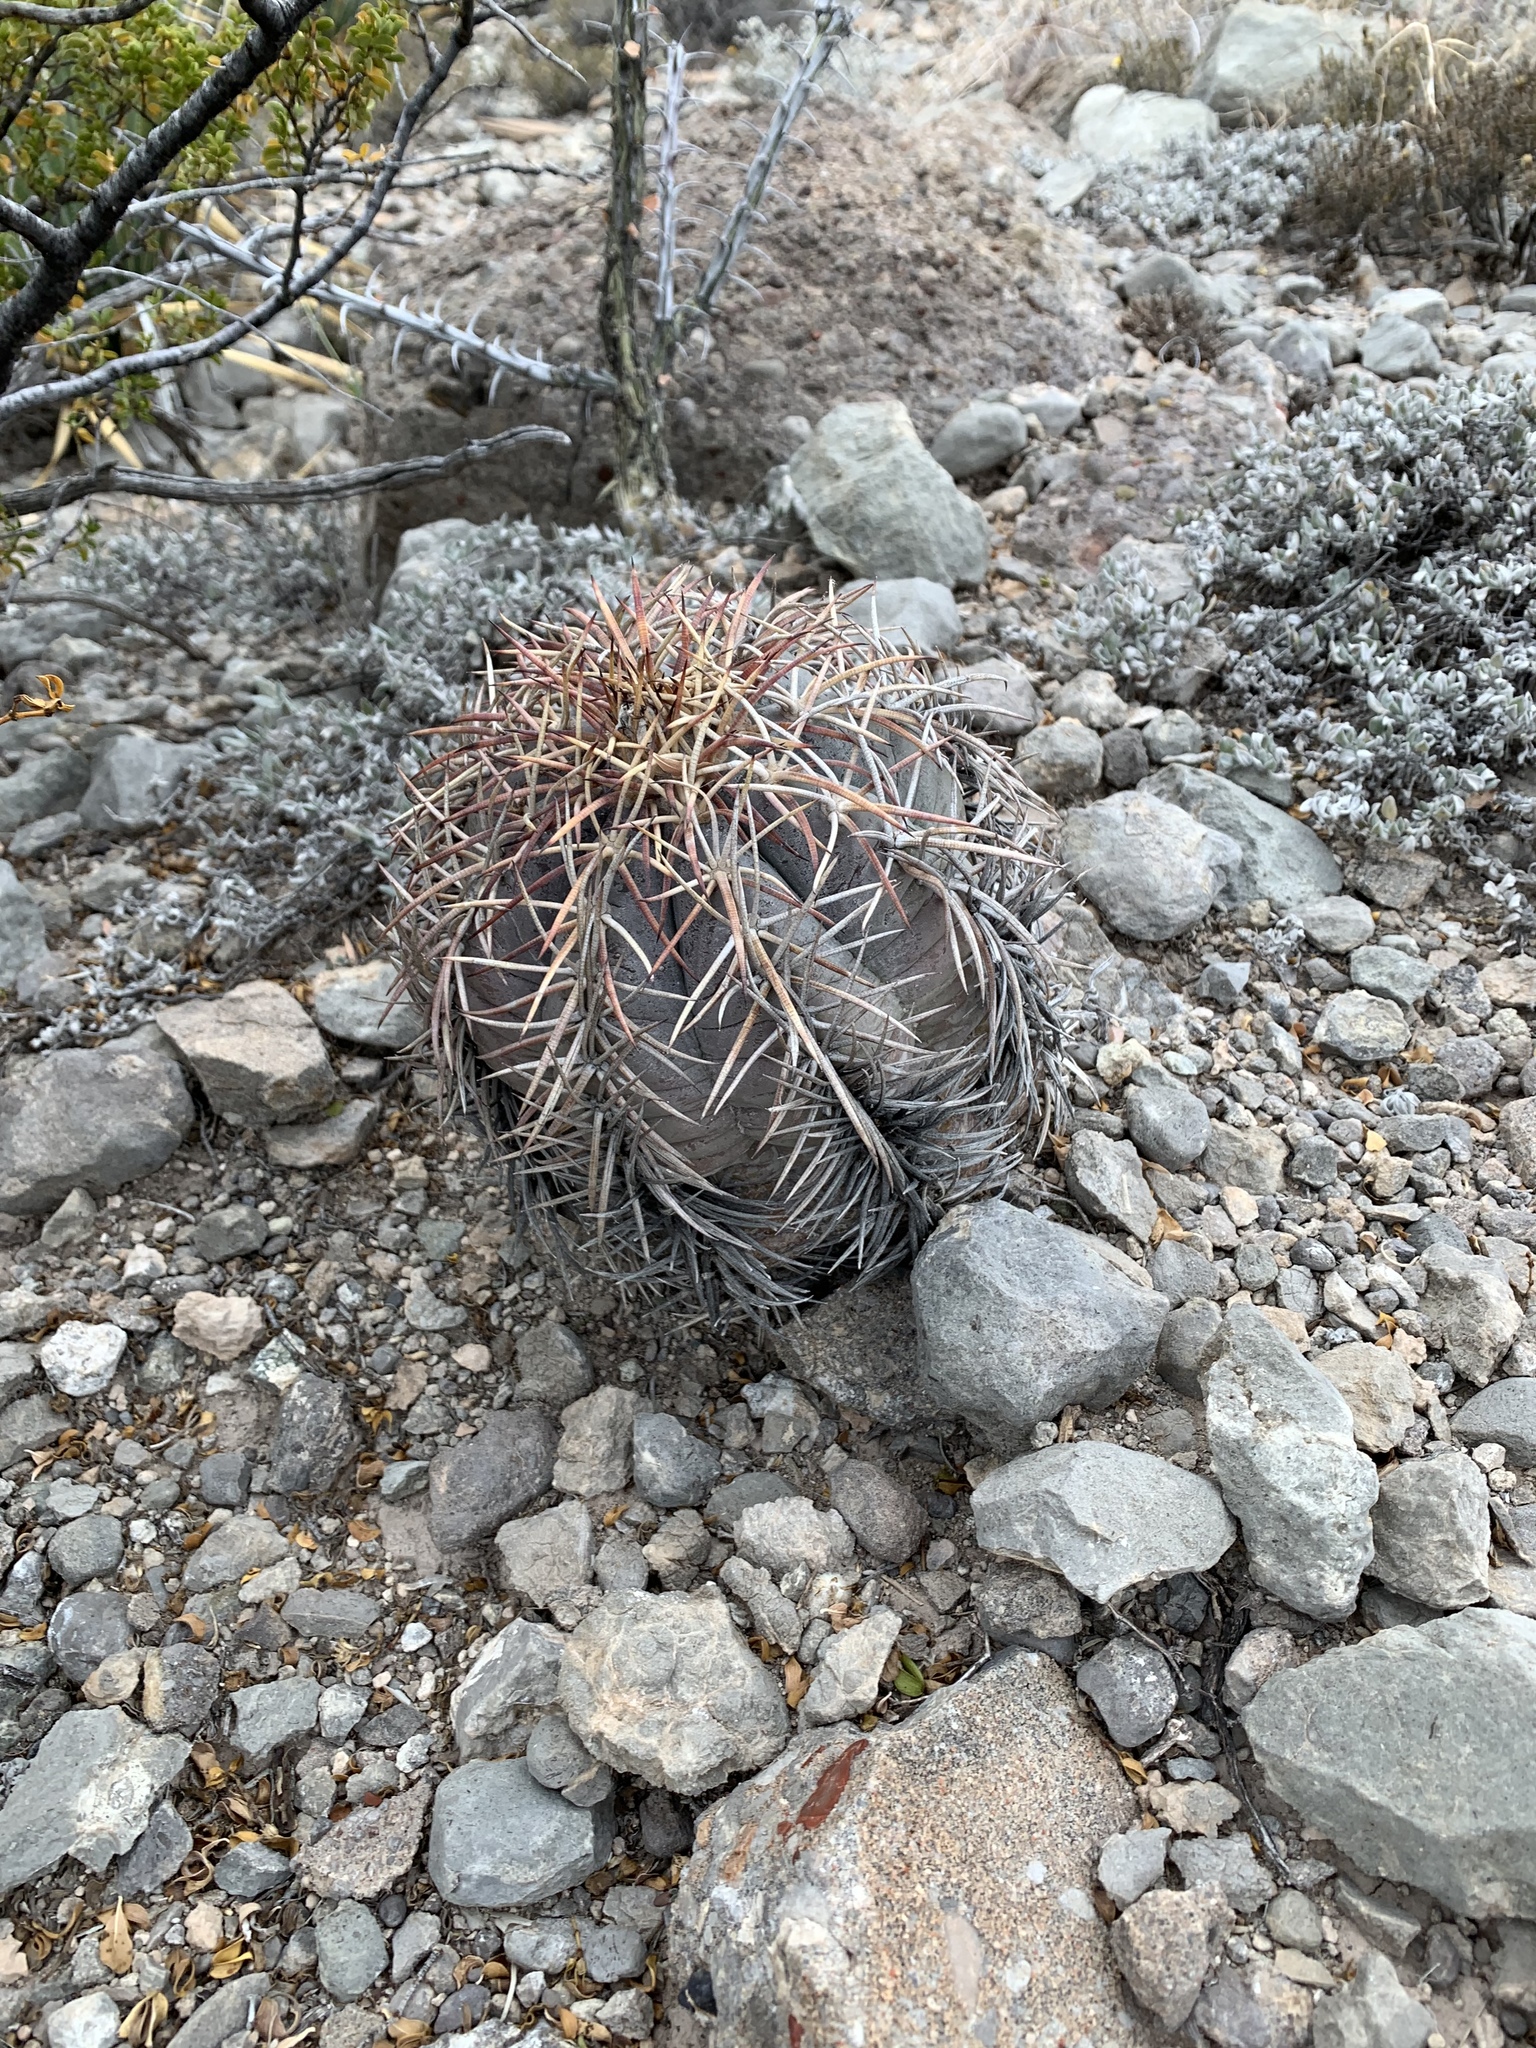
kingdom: Plantae
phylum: Tracheophyta
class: Magnoliopsida
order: Caryophyllales
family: Cactaceae
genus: Echinocactus
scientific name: Echinocactus horizonthalonius
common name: Devilshead
